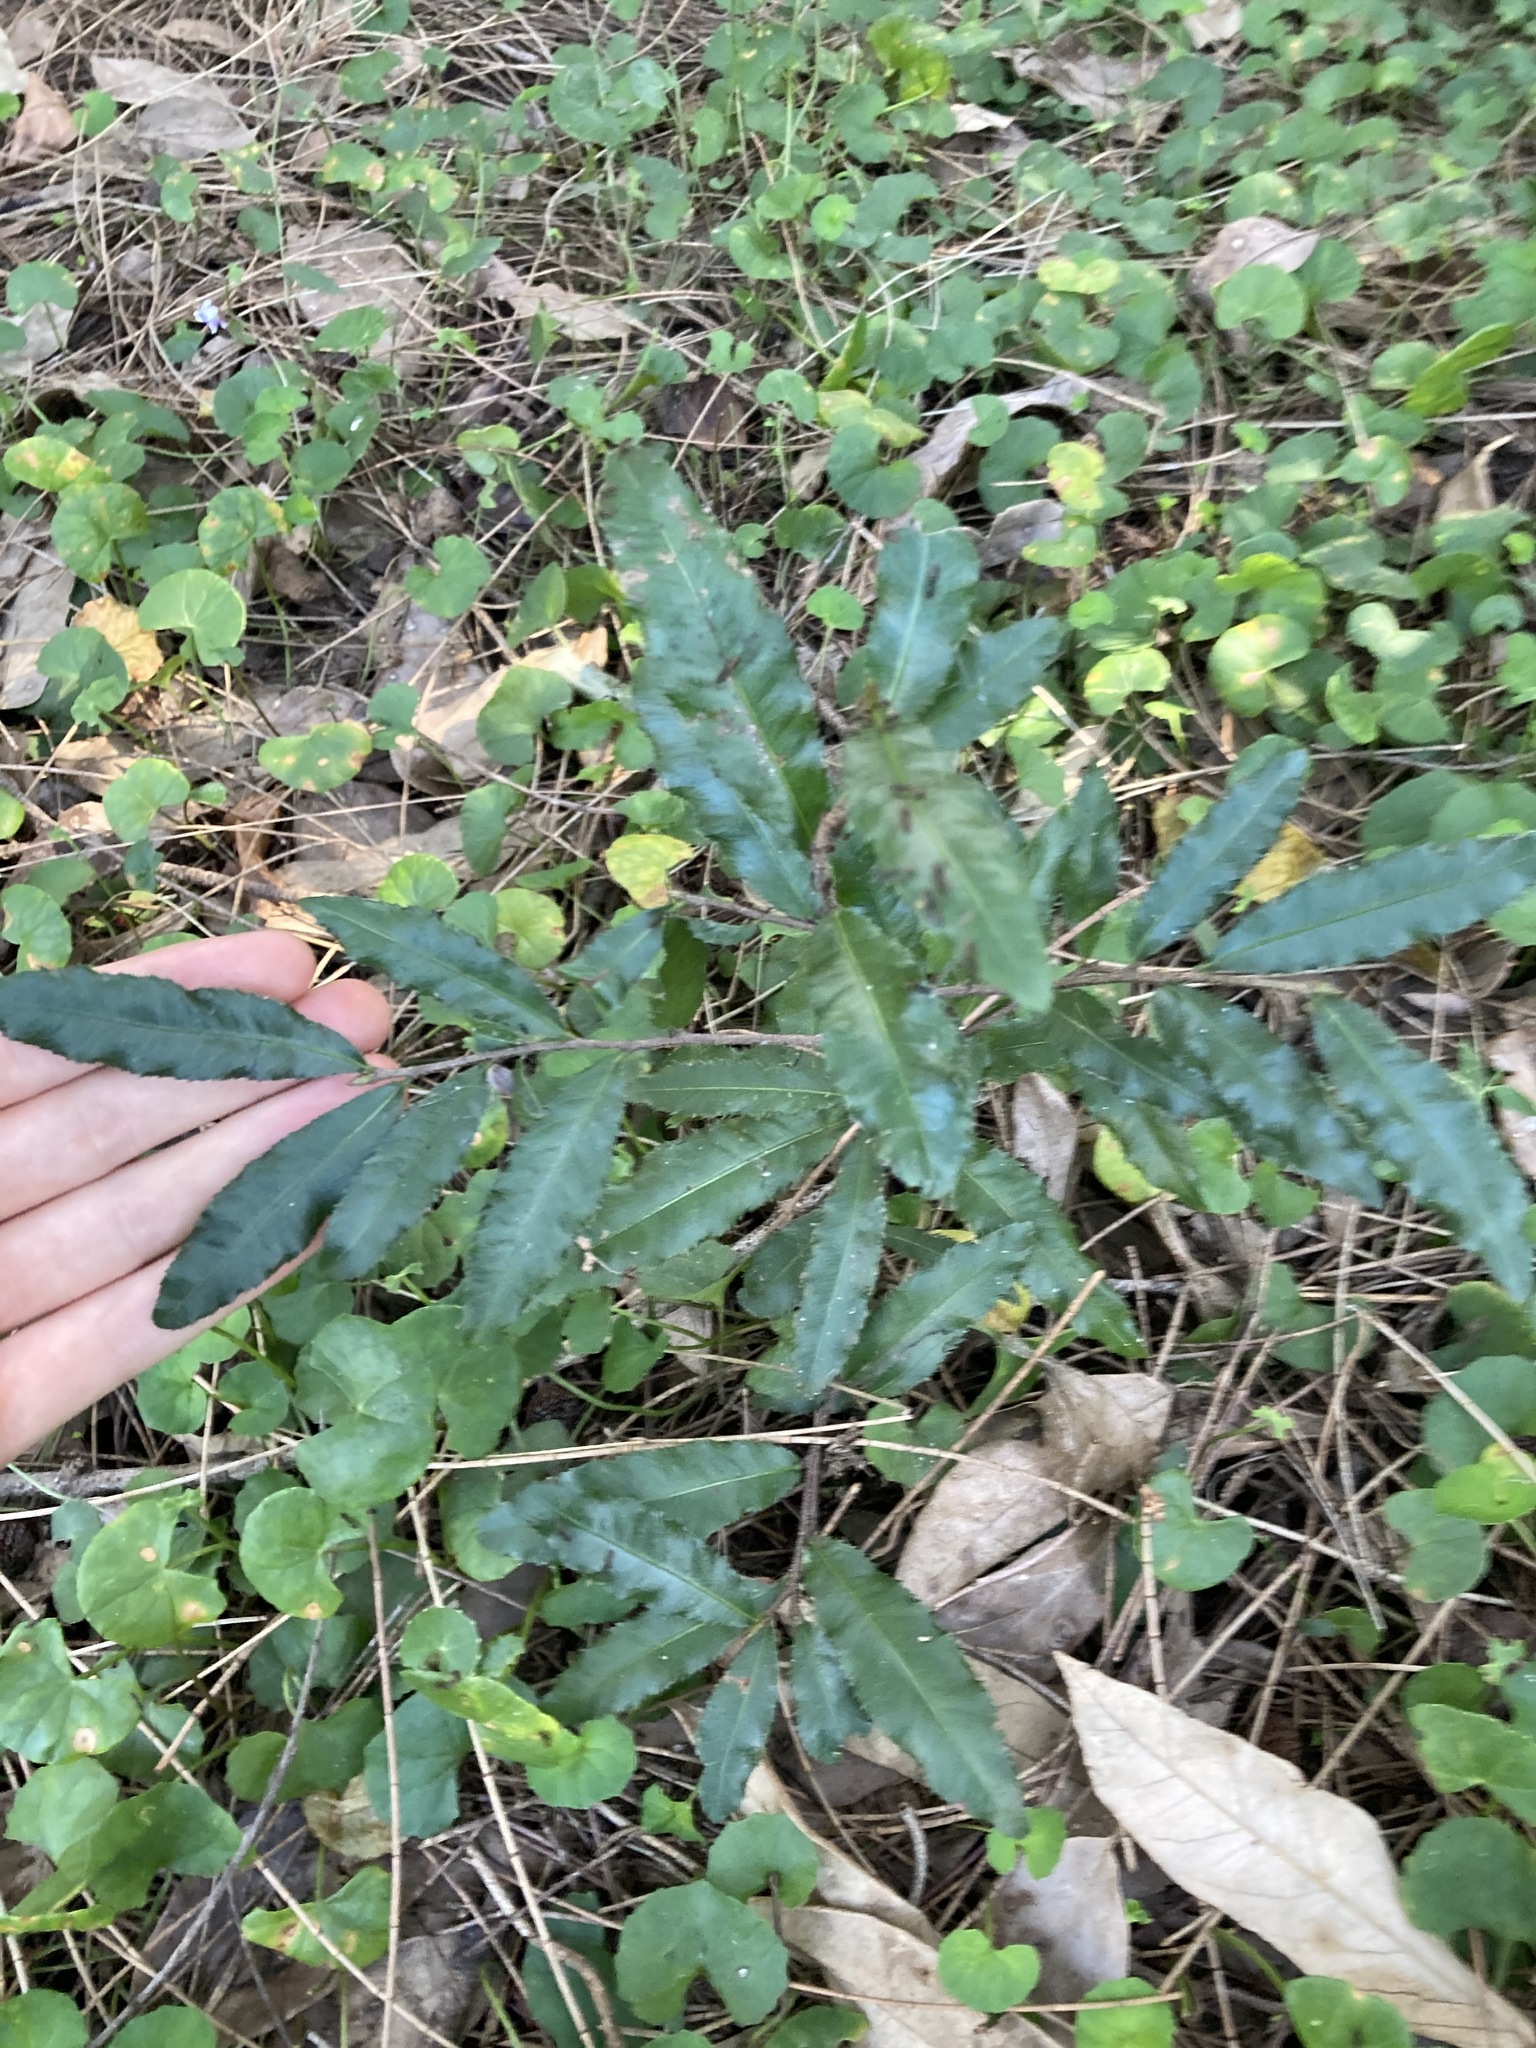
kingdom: Plantae
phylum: Tracheophyta
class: Magnoliopsida
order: Malpighiales
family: Ochnaceae
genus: Ochna
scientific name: Ochna serrulata
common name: Mickey mouse plant
